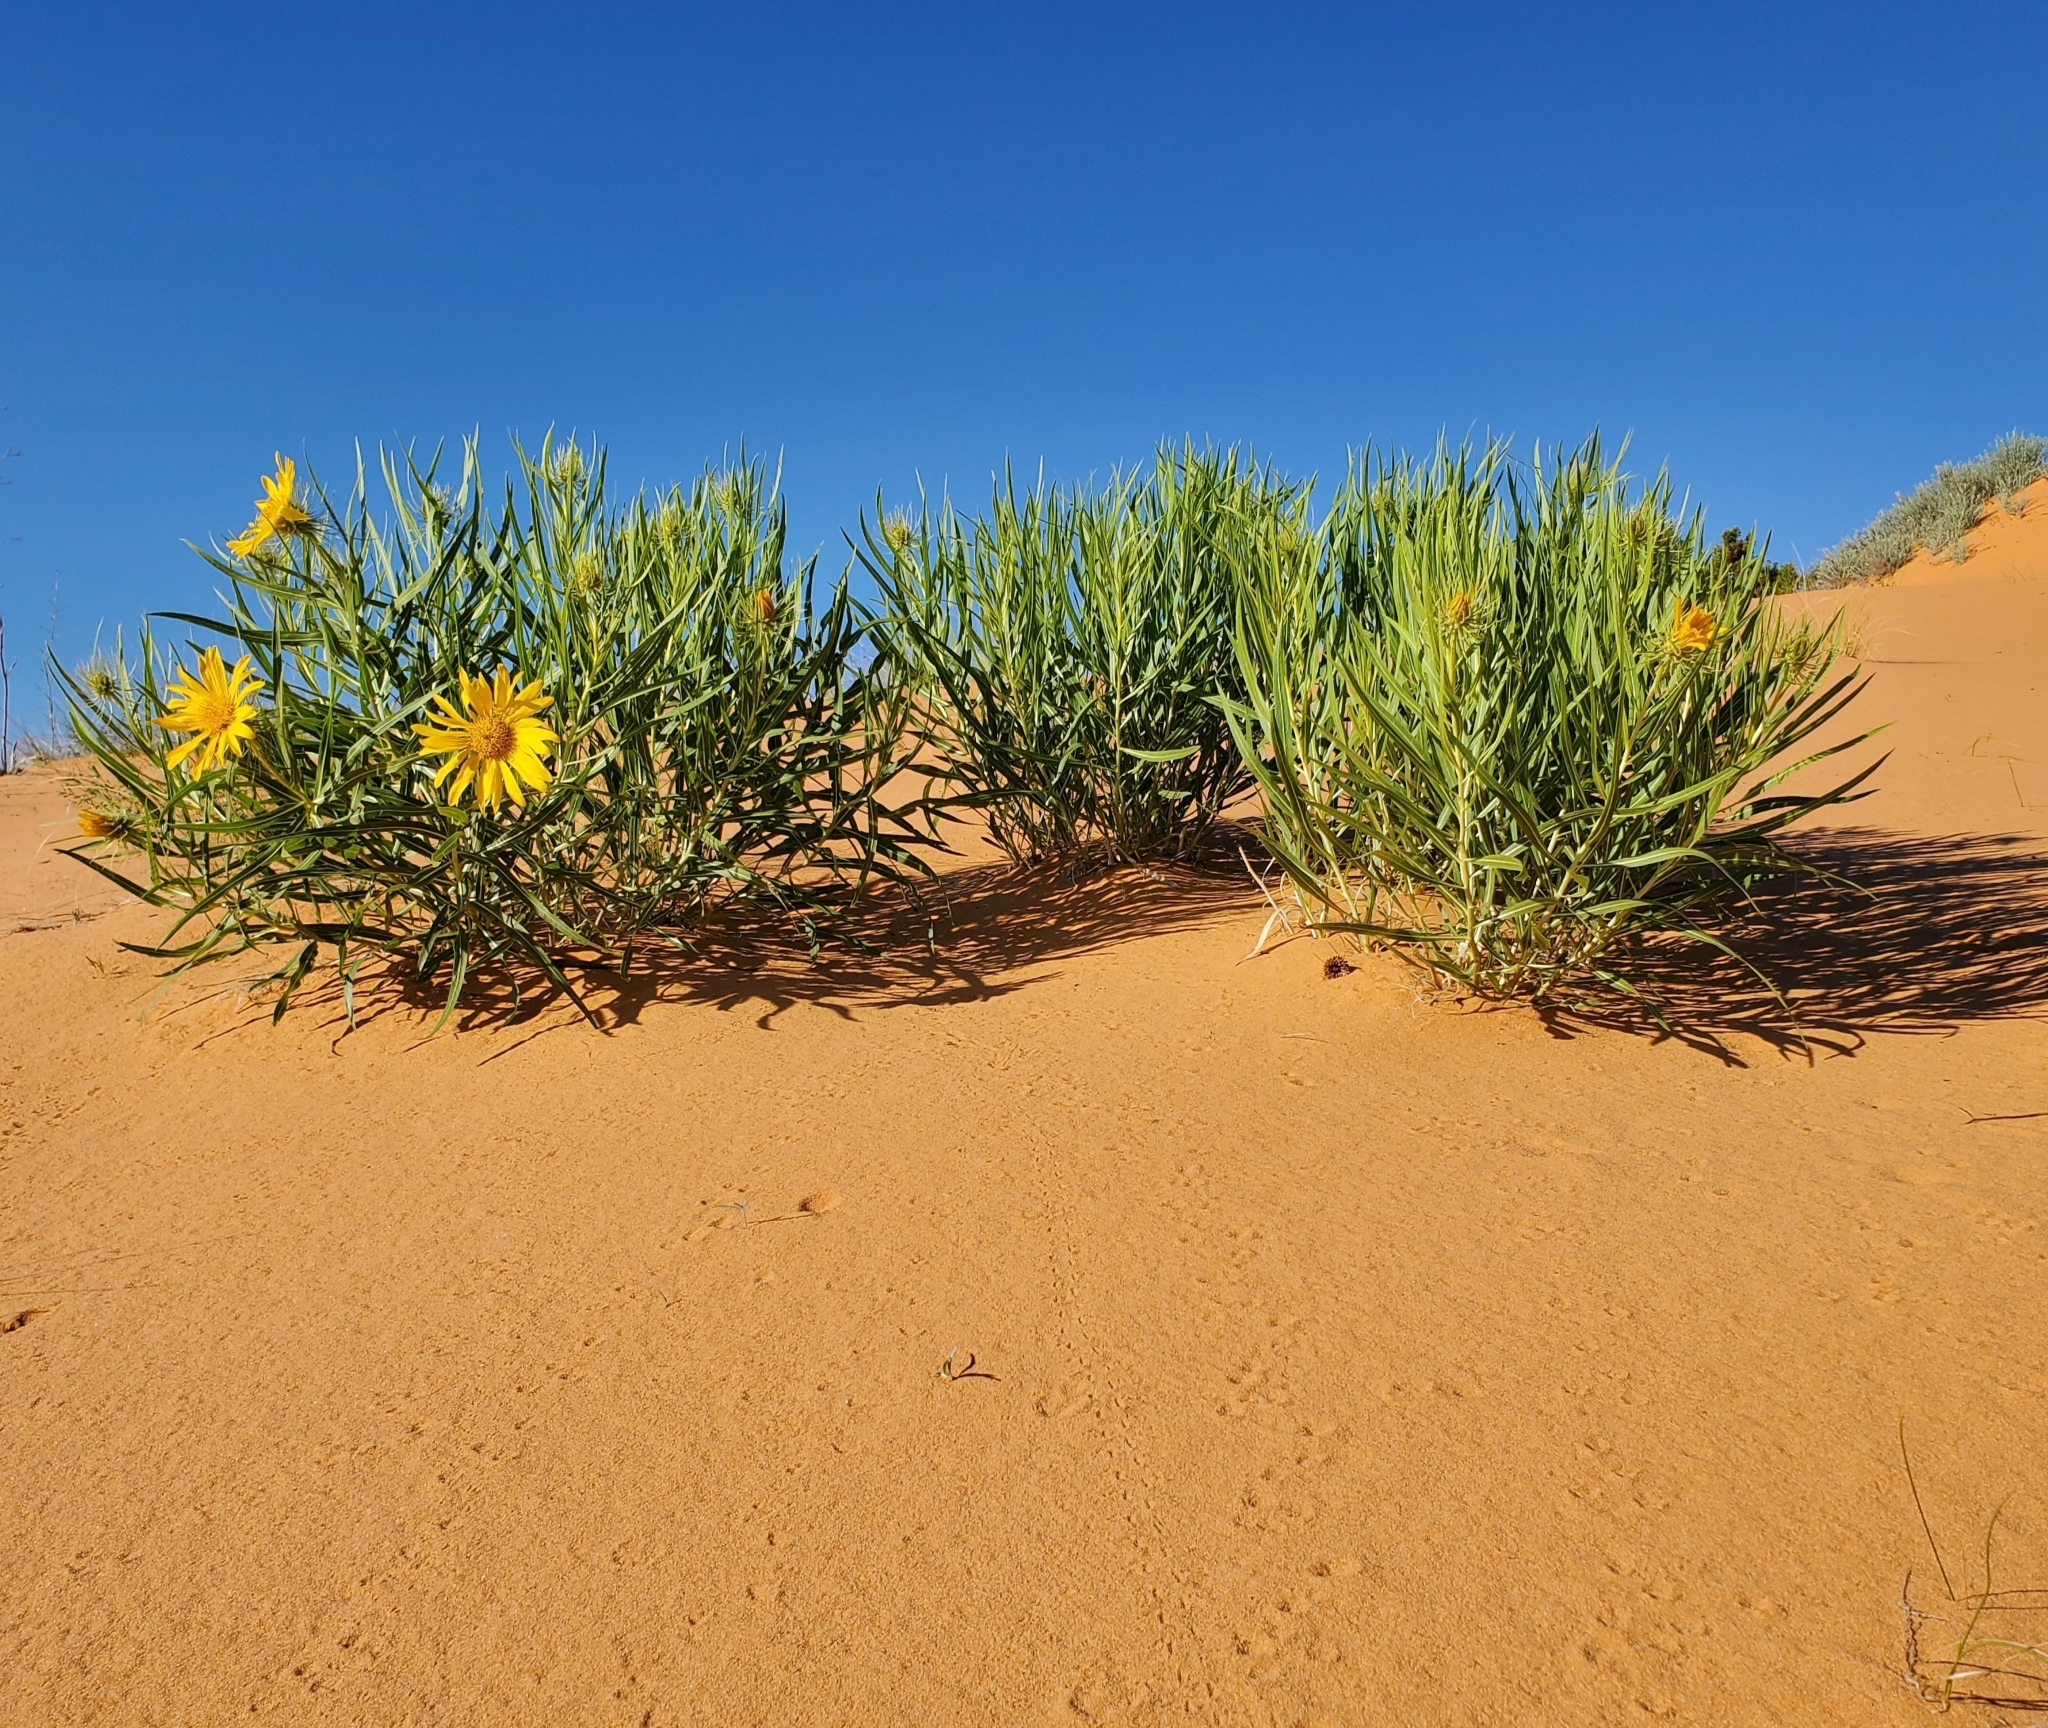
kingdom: Plantae
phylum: Tracheophyta
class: Magnoliopsida
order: Asterales
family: Asteraceae
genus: Scabrethia
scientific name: Scabrethia scabra
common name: Rough mules's-ears
